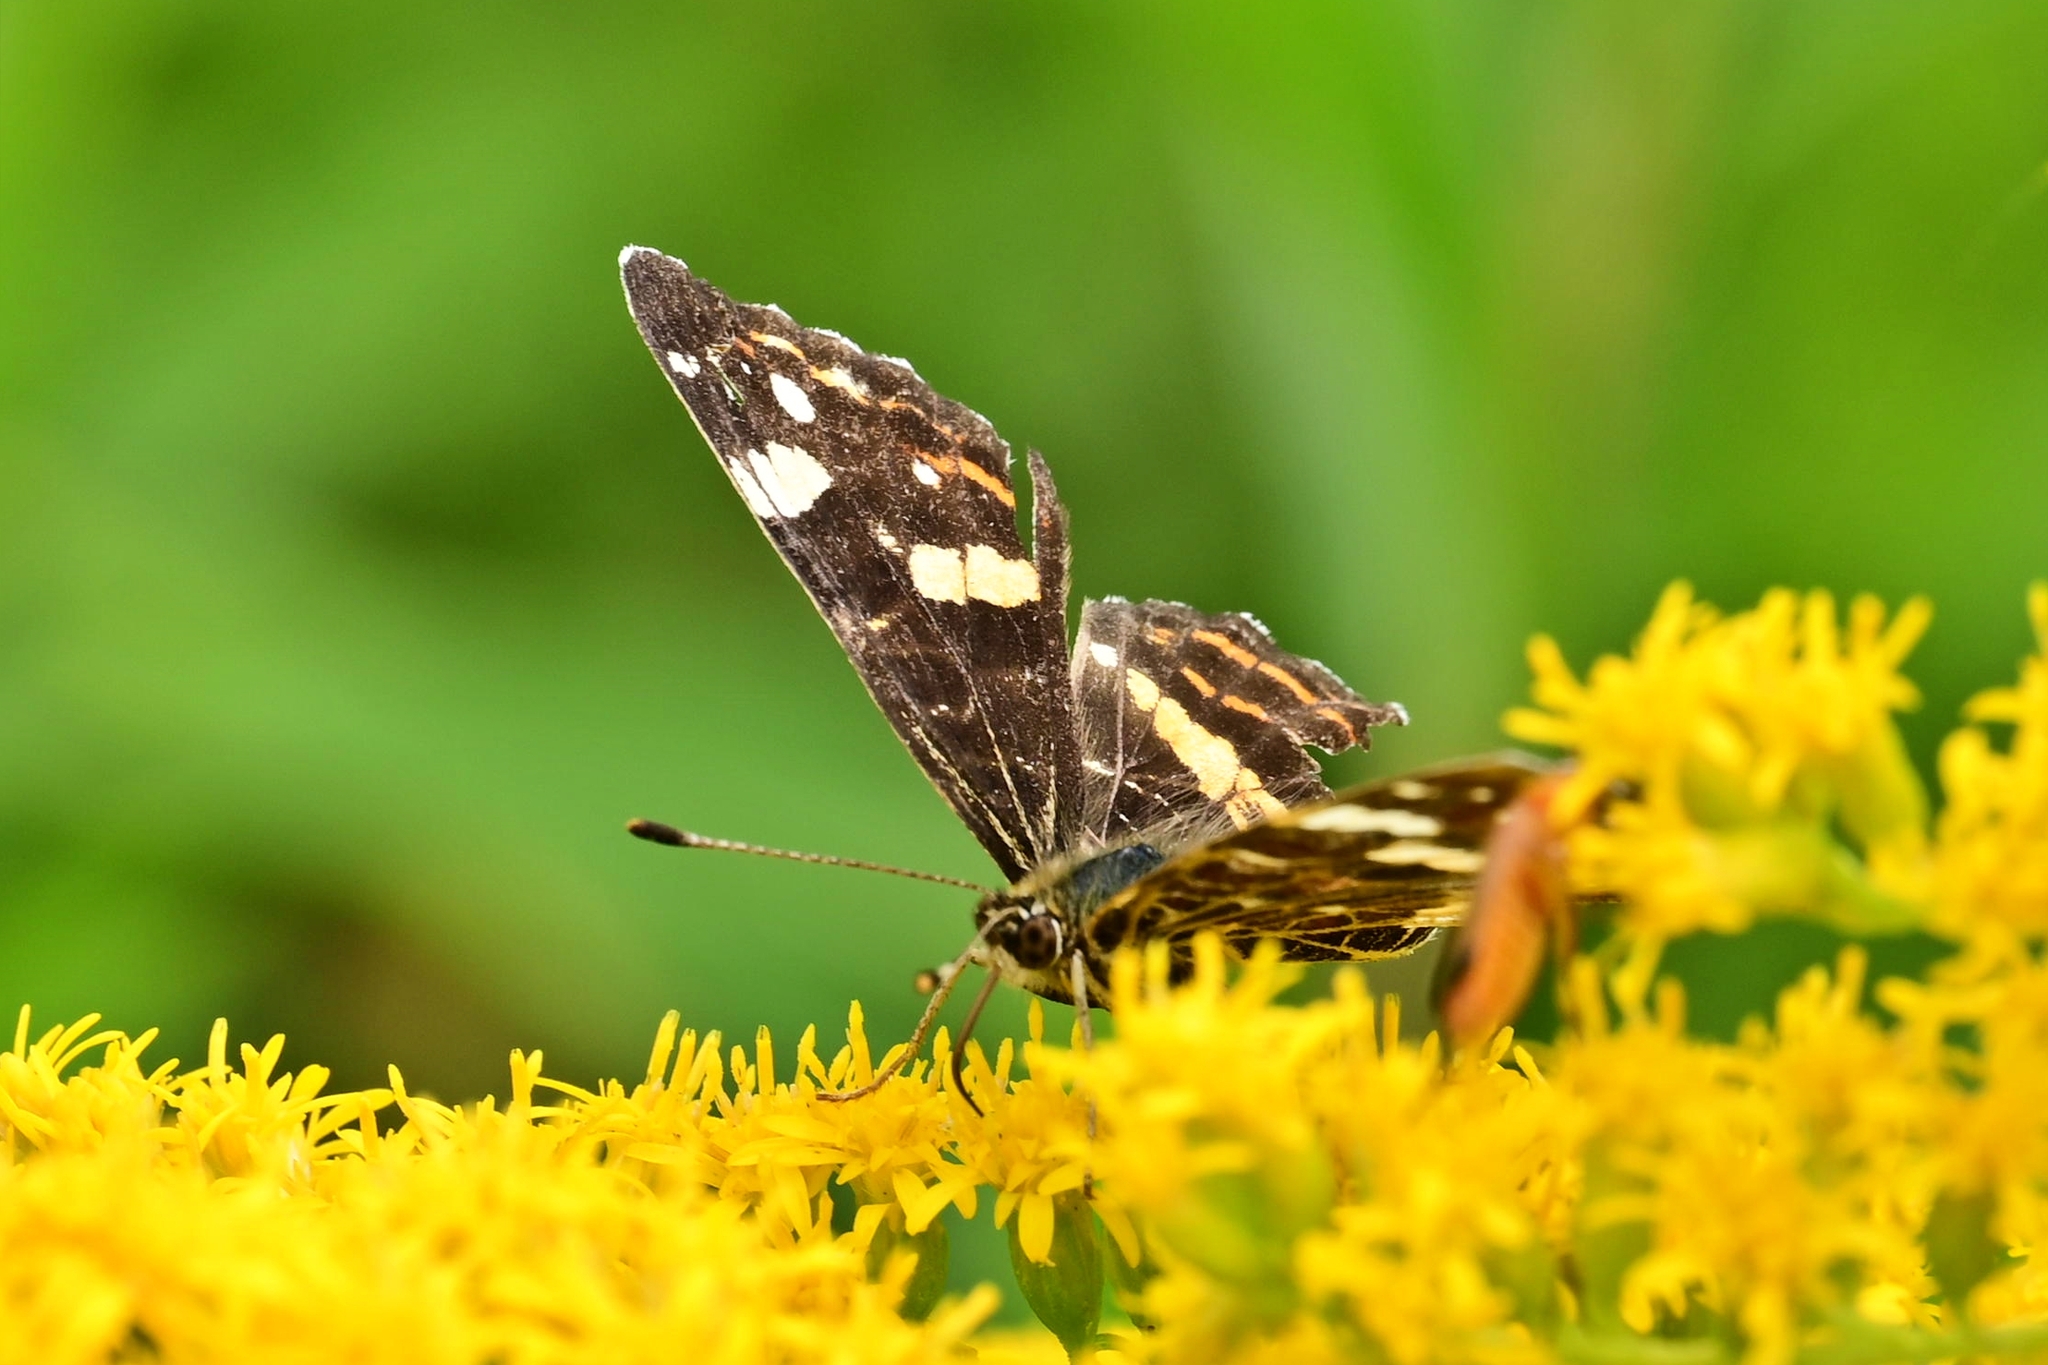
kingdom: Animalia
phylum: Arthropoda
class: Insecta
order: Lepidoptera
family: Nymphalidae
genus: Araschnia
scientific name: Araschnia levana
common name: Map butterfly
